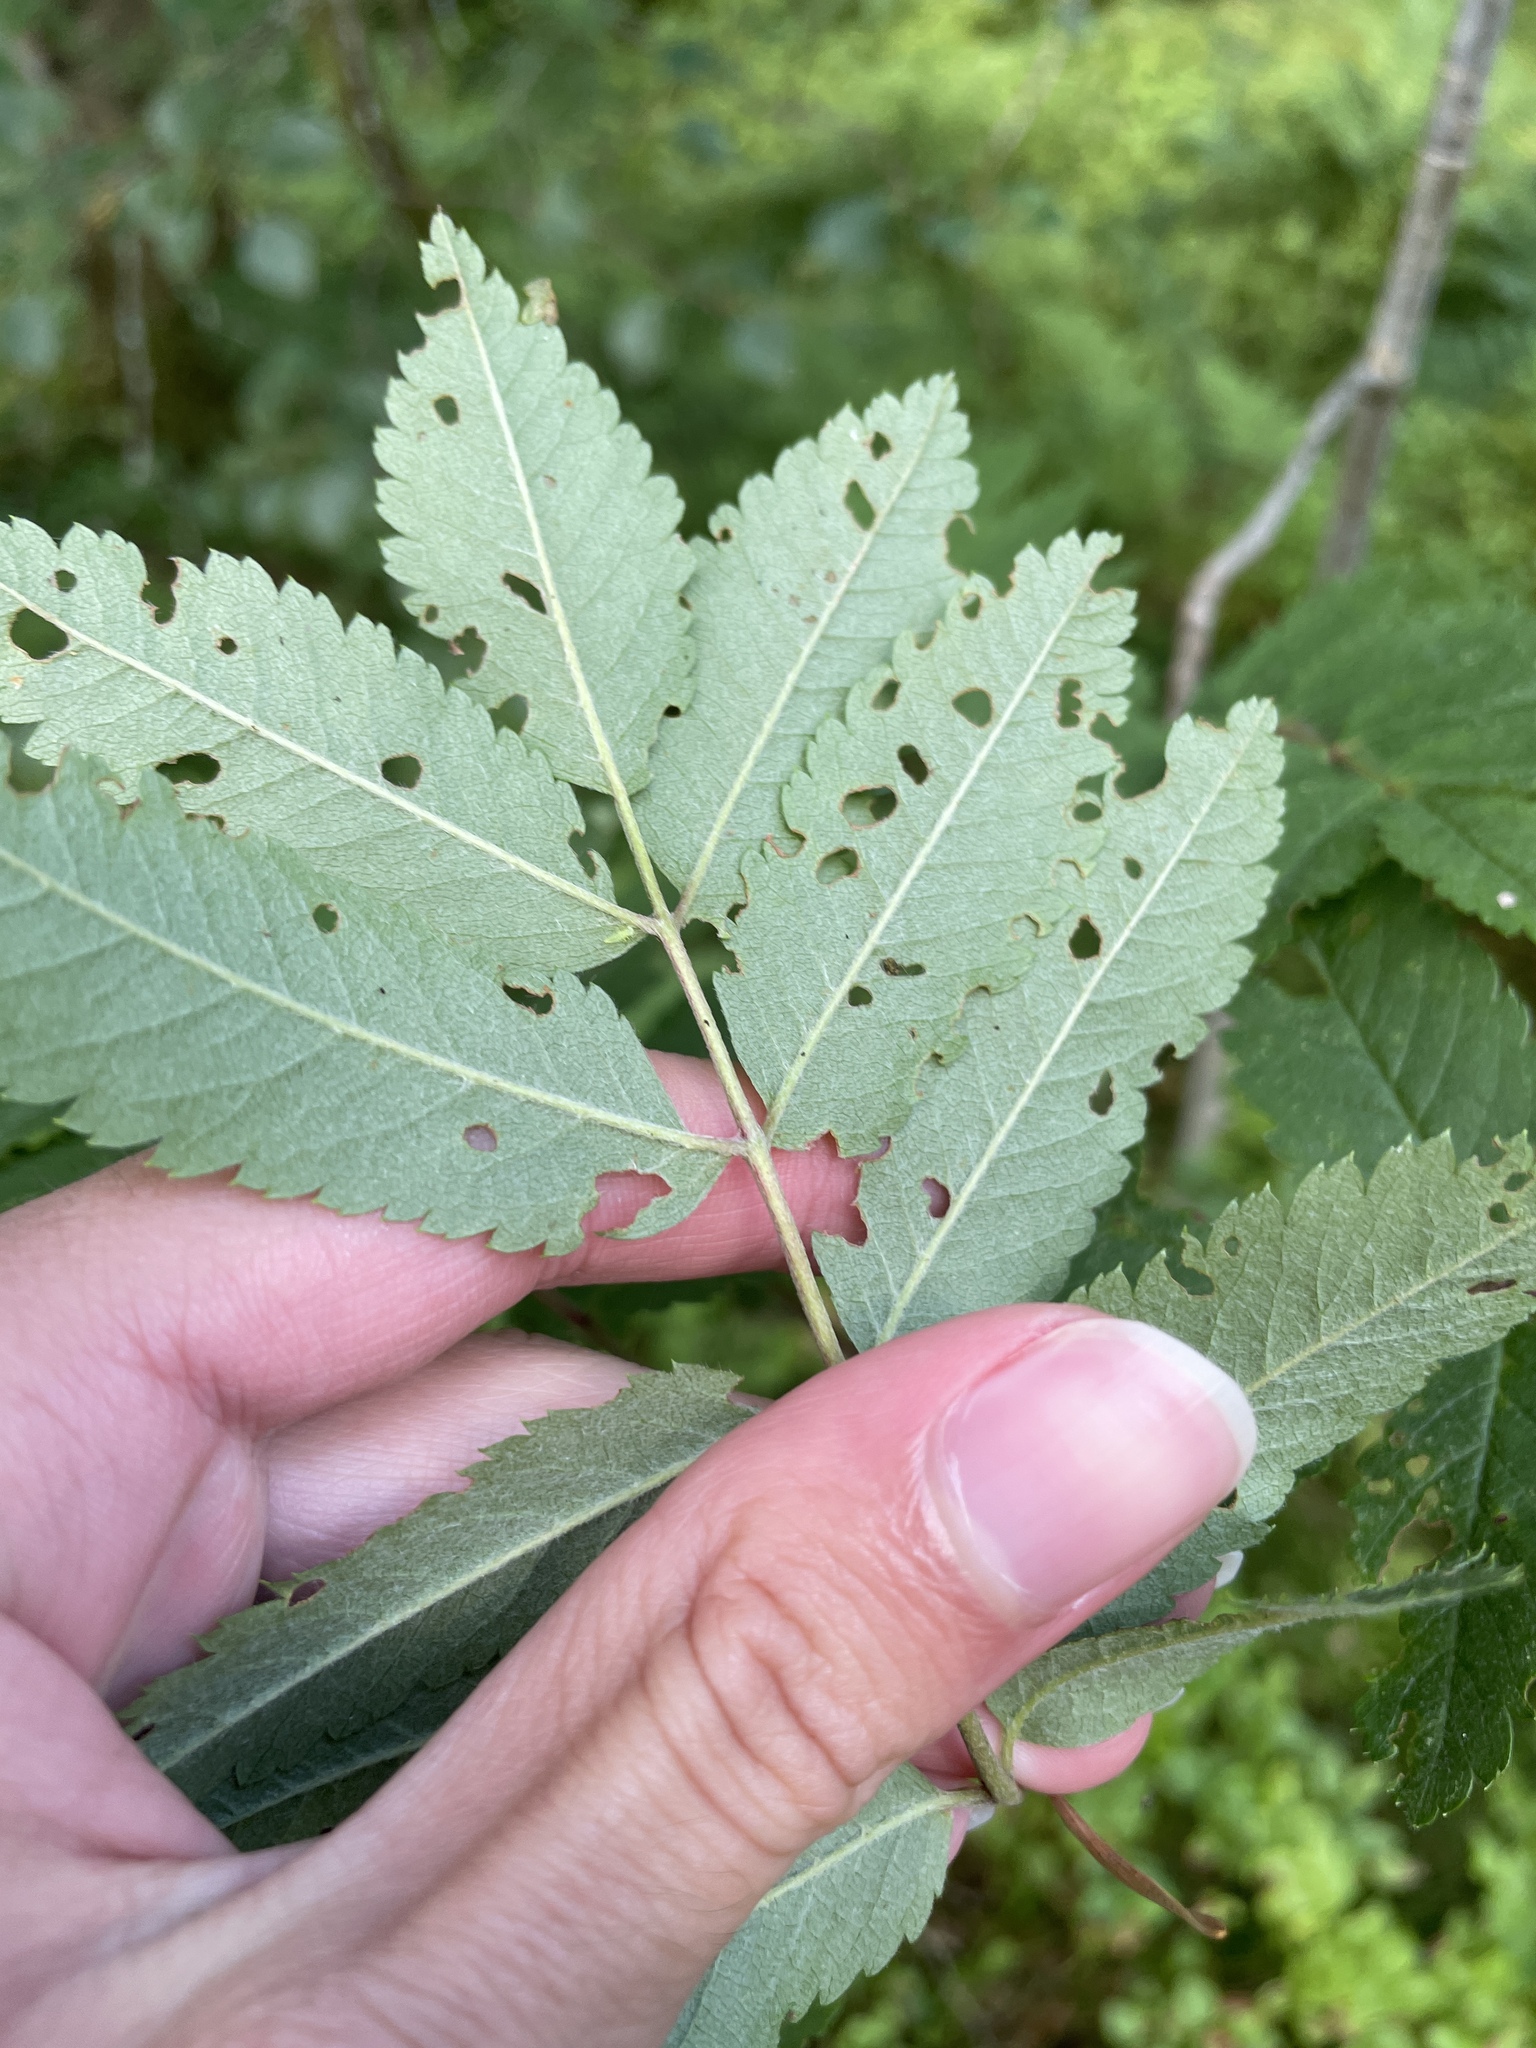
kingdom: Plantae
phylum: Tracheophyta
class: Magnoliopsida
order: Rosales
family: Rosaceae
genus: Sorbus
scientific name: Sorbus aucuparia
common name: Rowan
